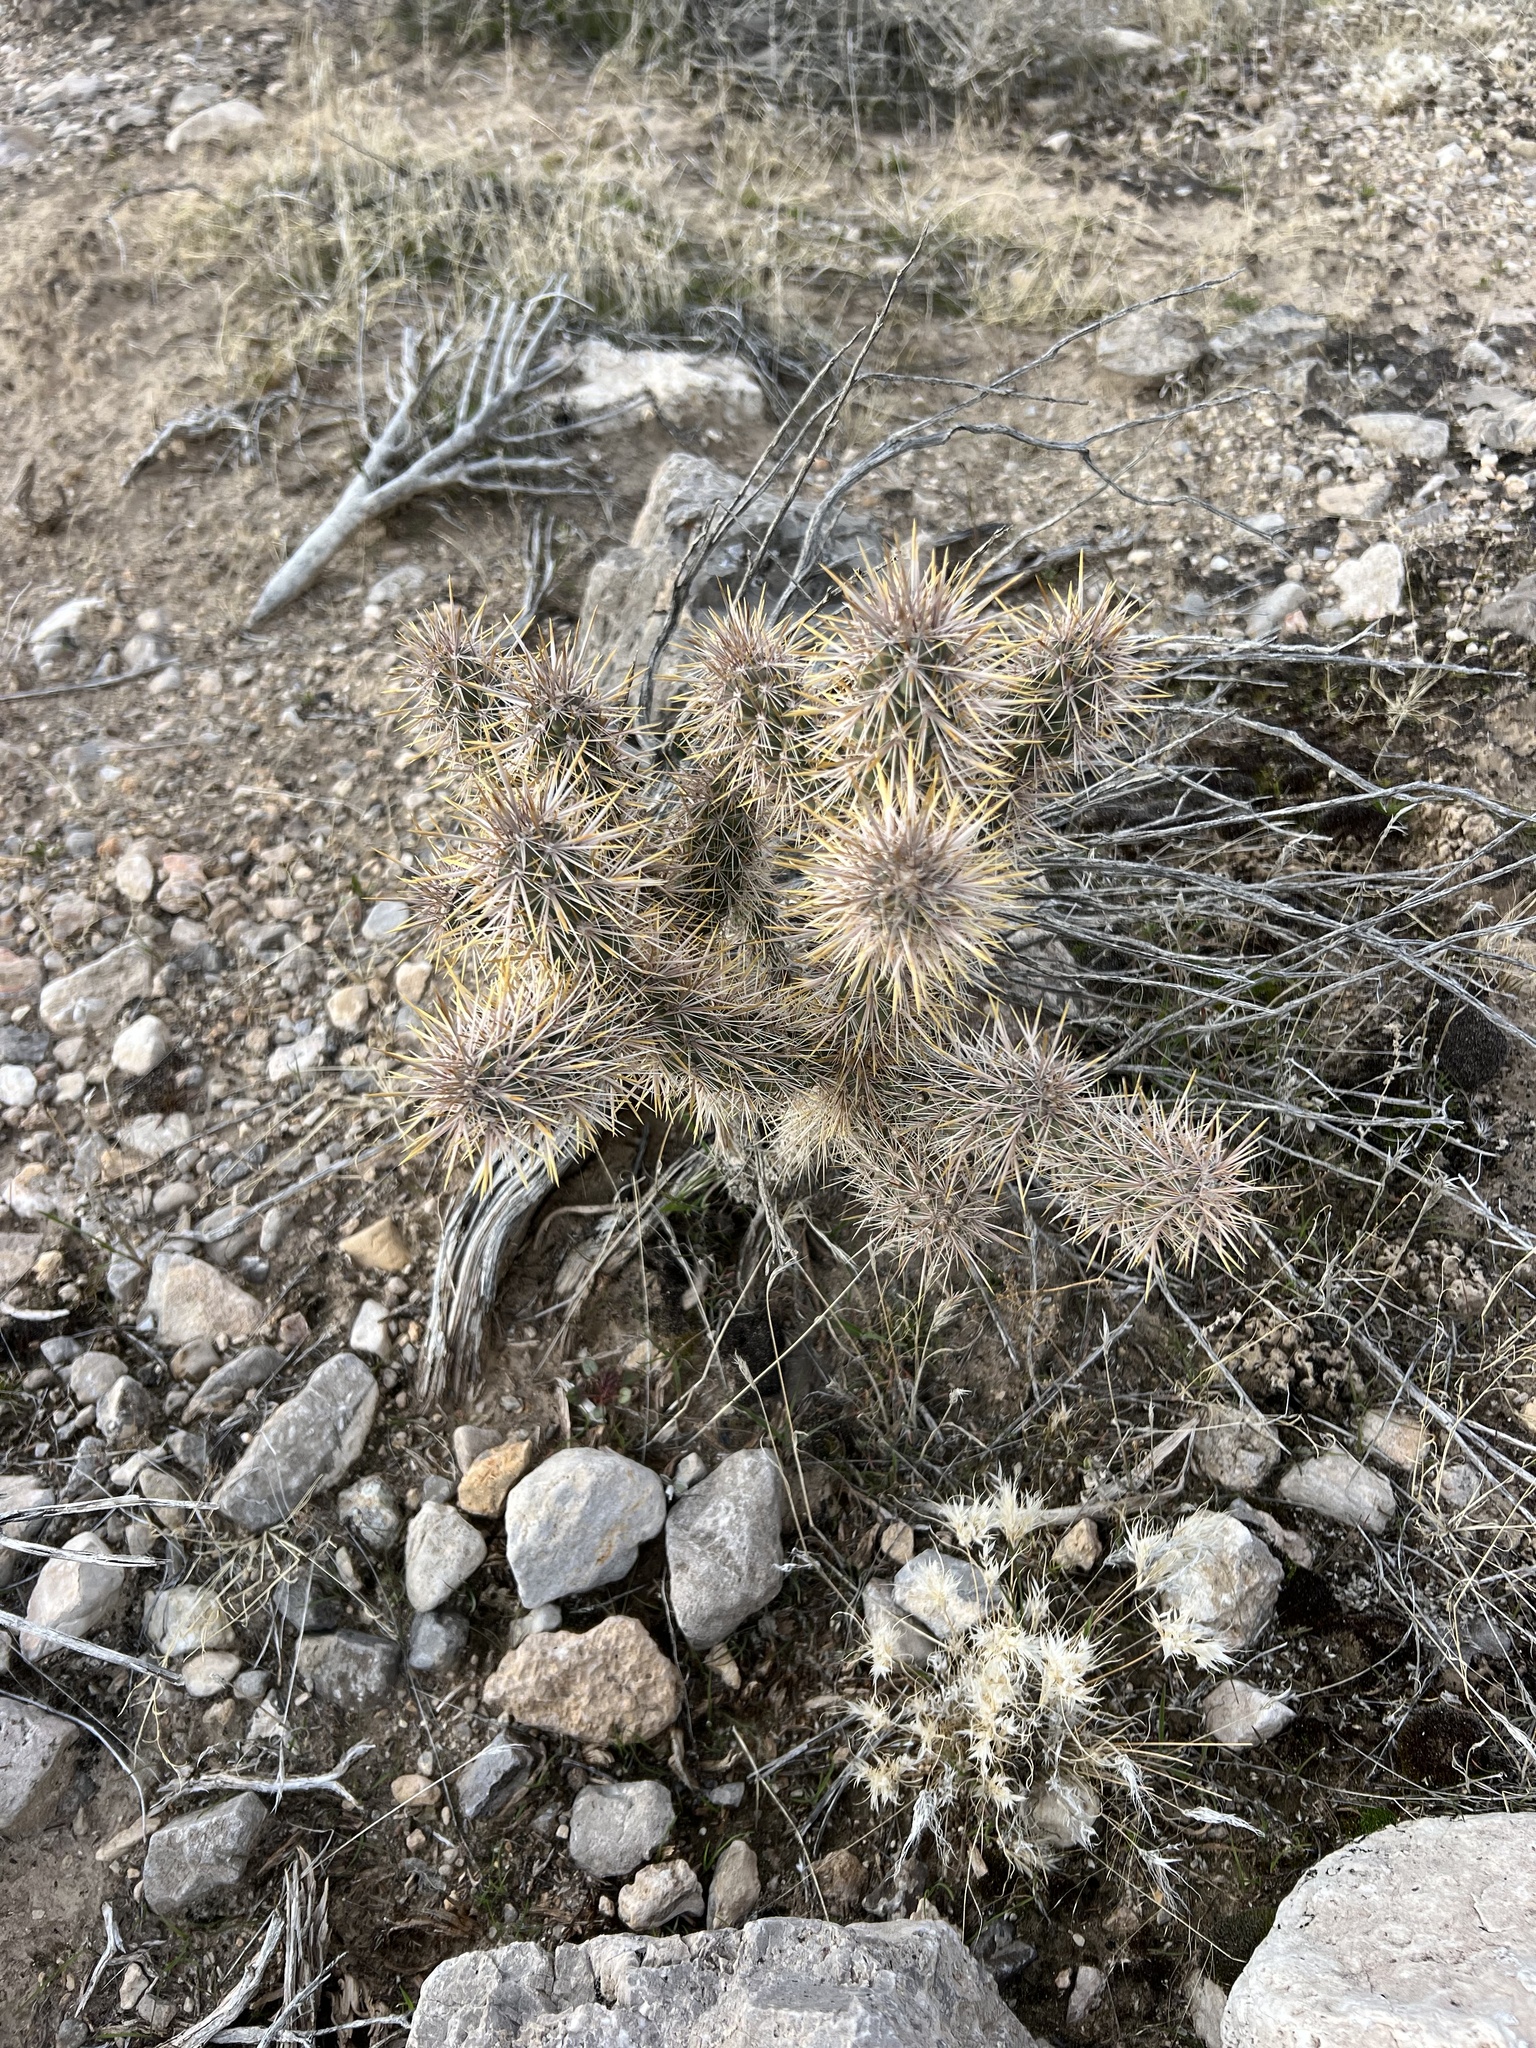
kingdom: Plantae
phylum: Tracheophyta
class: Magnoliopsida
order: Caryophyllales
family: Cactaceae
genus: Cylindropuntia
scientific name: Cylindropuntia echinocarpa
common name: Ground cholla
